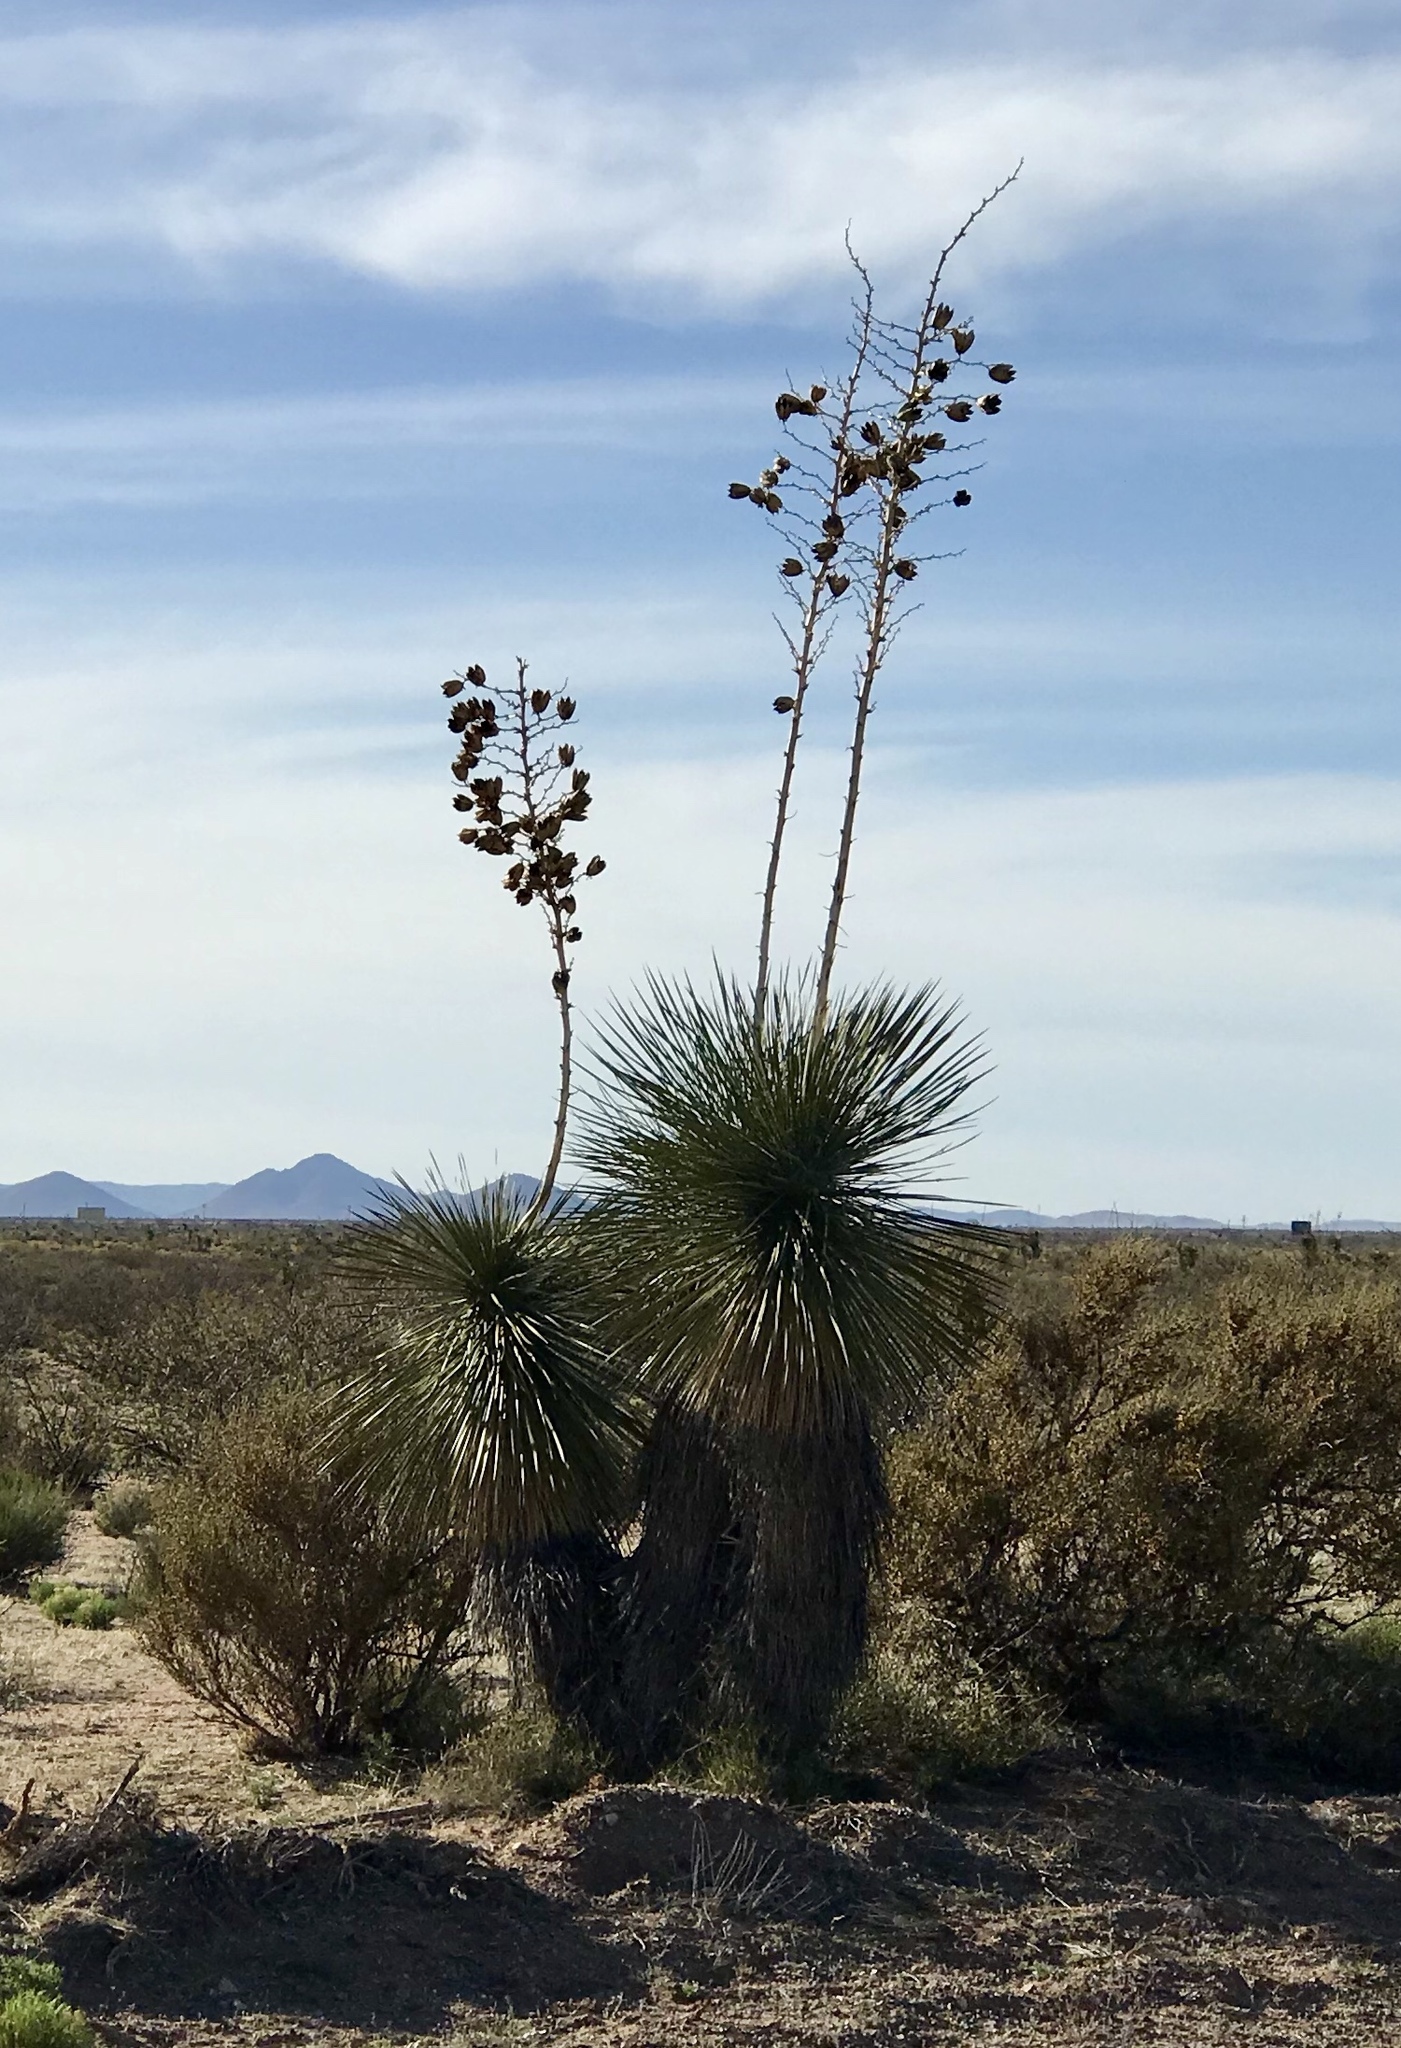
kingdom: Plantae
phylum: Tracheophyta
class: Liliopsida
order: Asparagales
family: Asparagaceae
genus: Yucca
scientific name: Yucca elata
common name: Palmella
